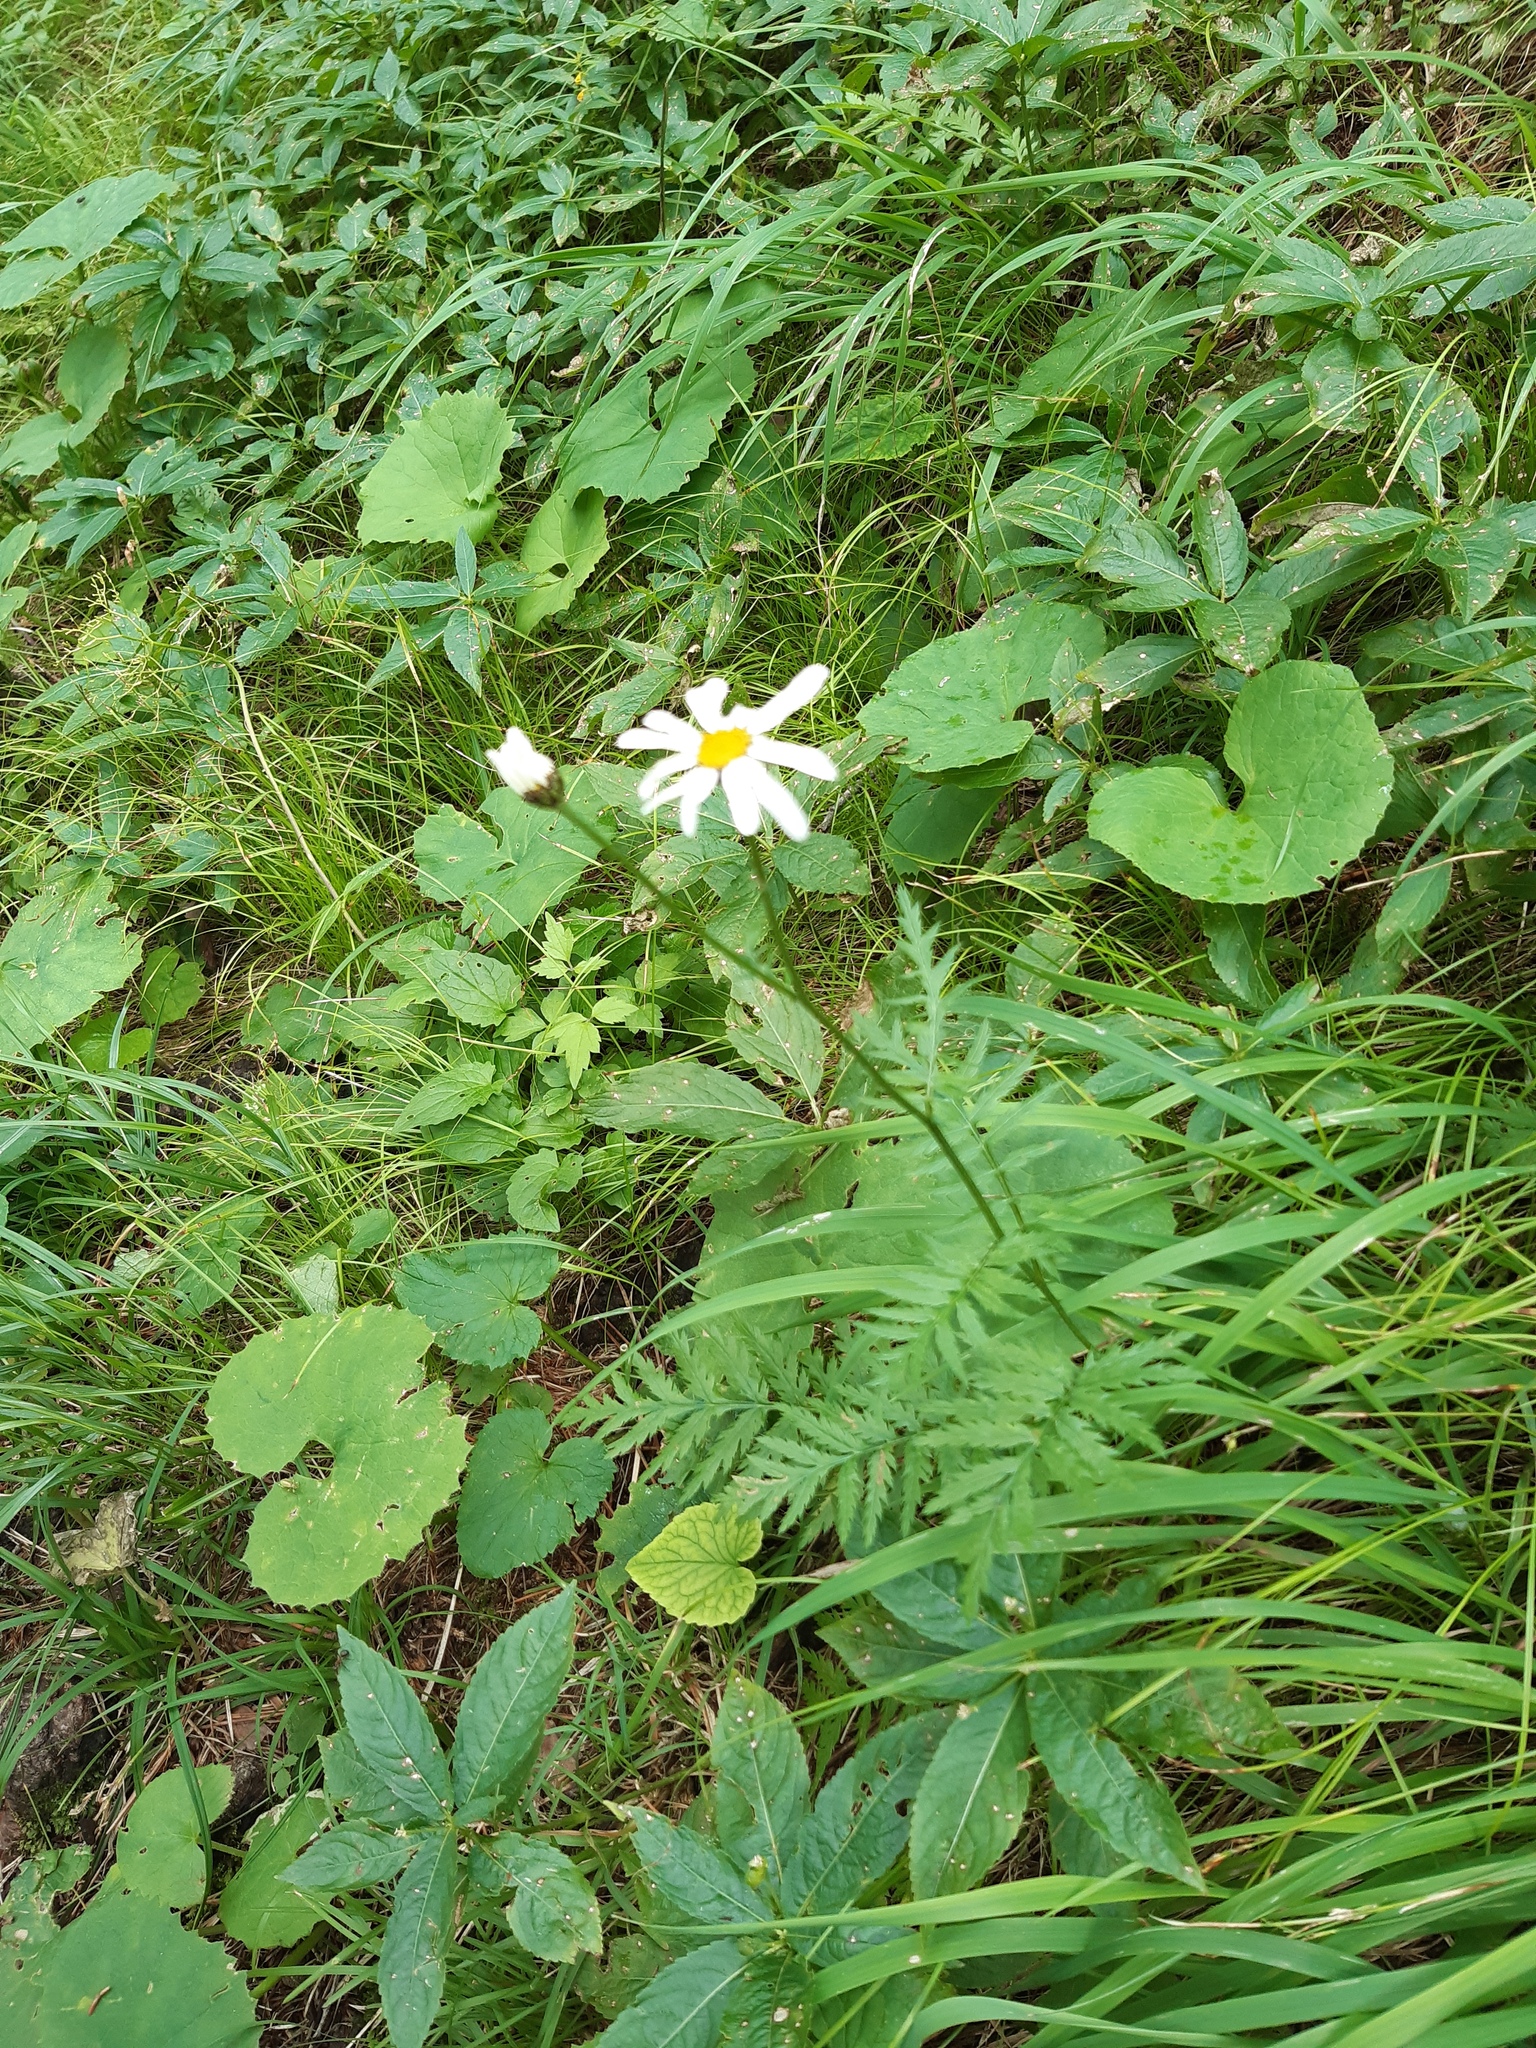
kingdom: Plantae
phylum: Tracheophyta
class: Magnoliopsida
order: Asterales
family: Asteraceae
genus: Tanacetum
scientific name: Tanacetum corymbosum
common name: Scentless feverfew
